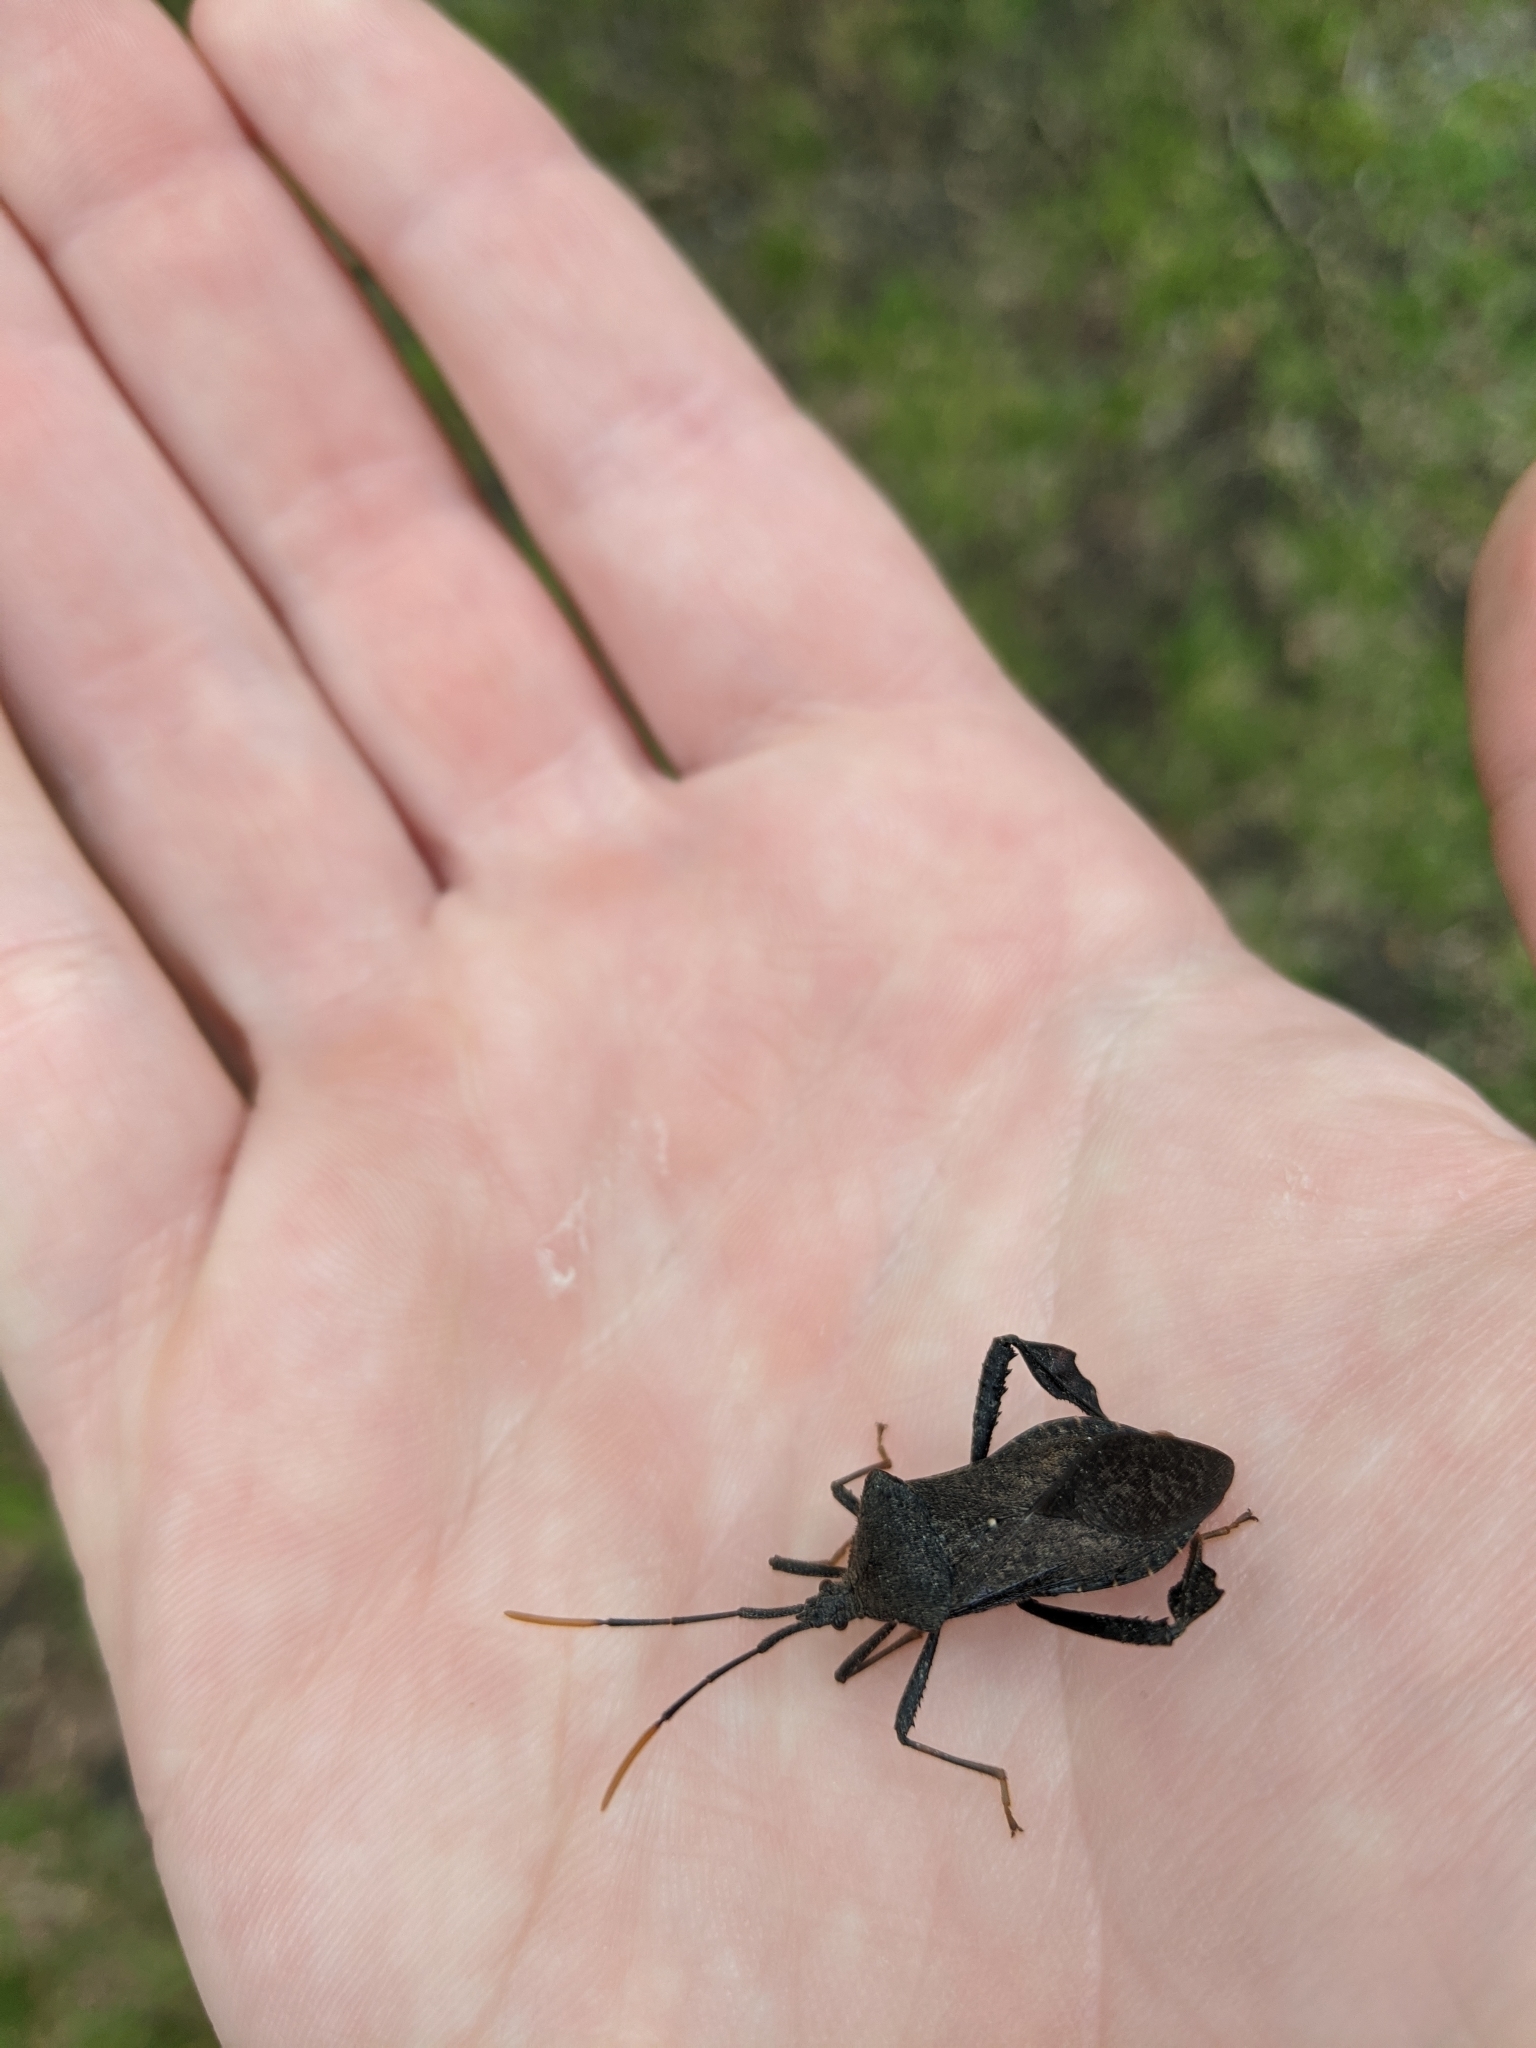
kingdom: Animalia
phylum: Arthropoda
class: Insecta
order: Hemiptera
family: Coreidae
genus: Acanthocephala
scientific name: Acanthocephala terminalis
